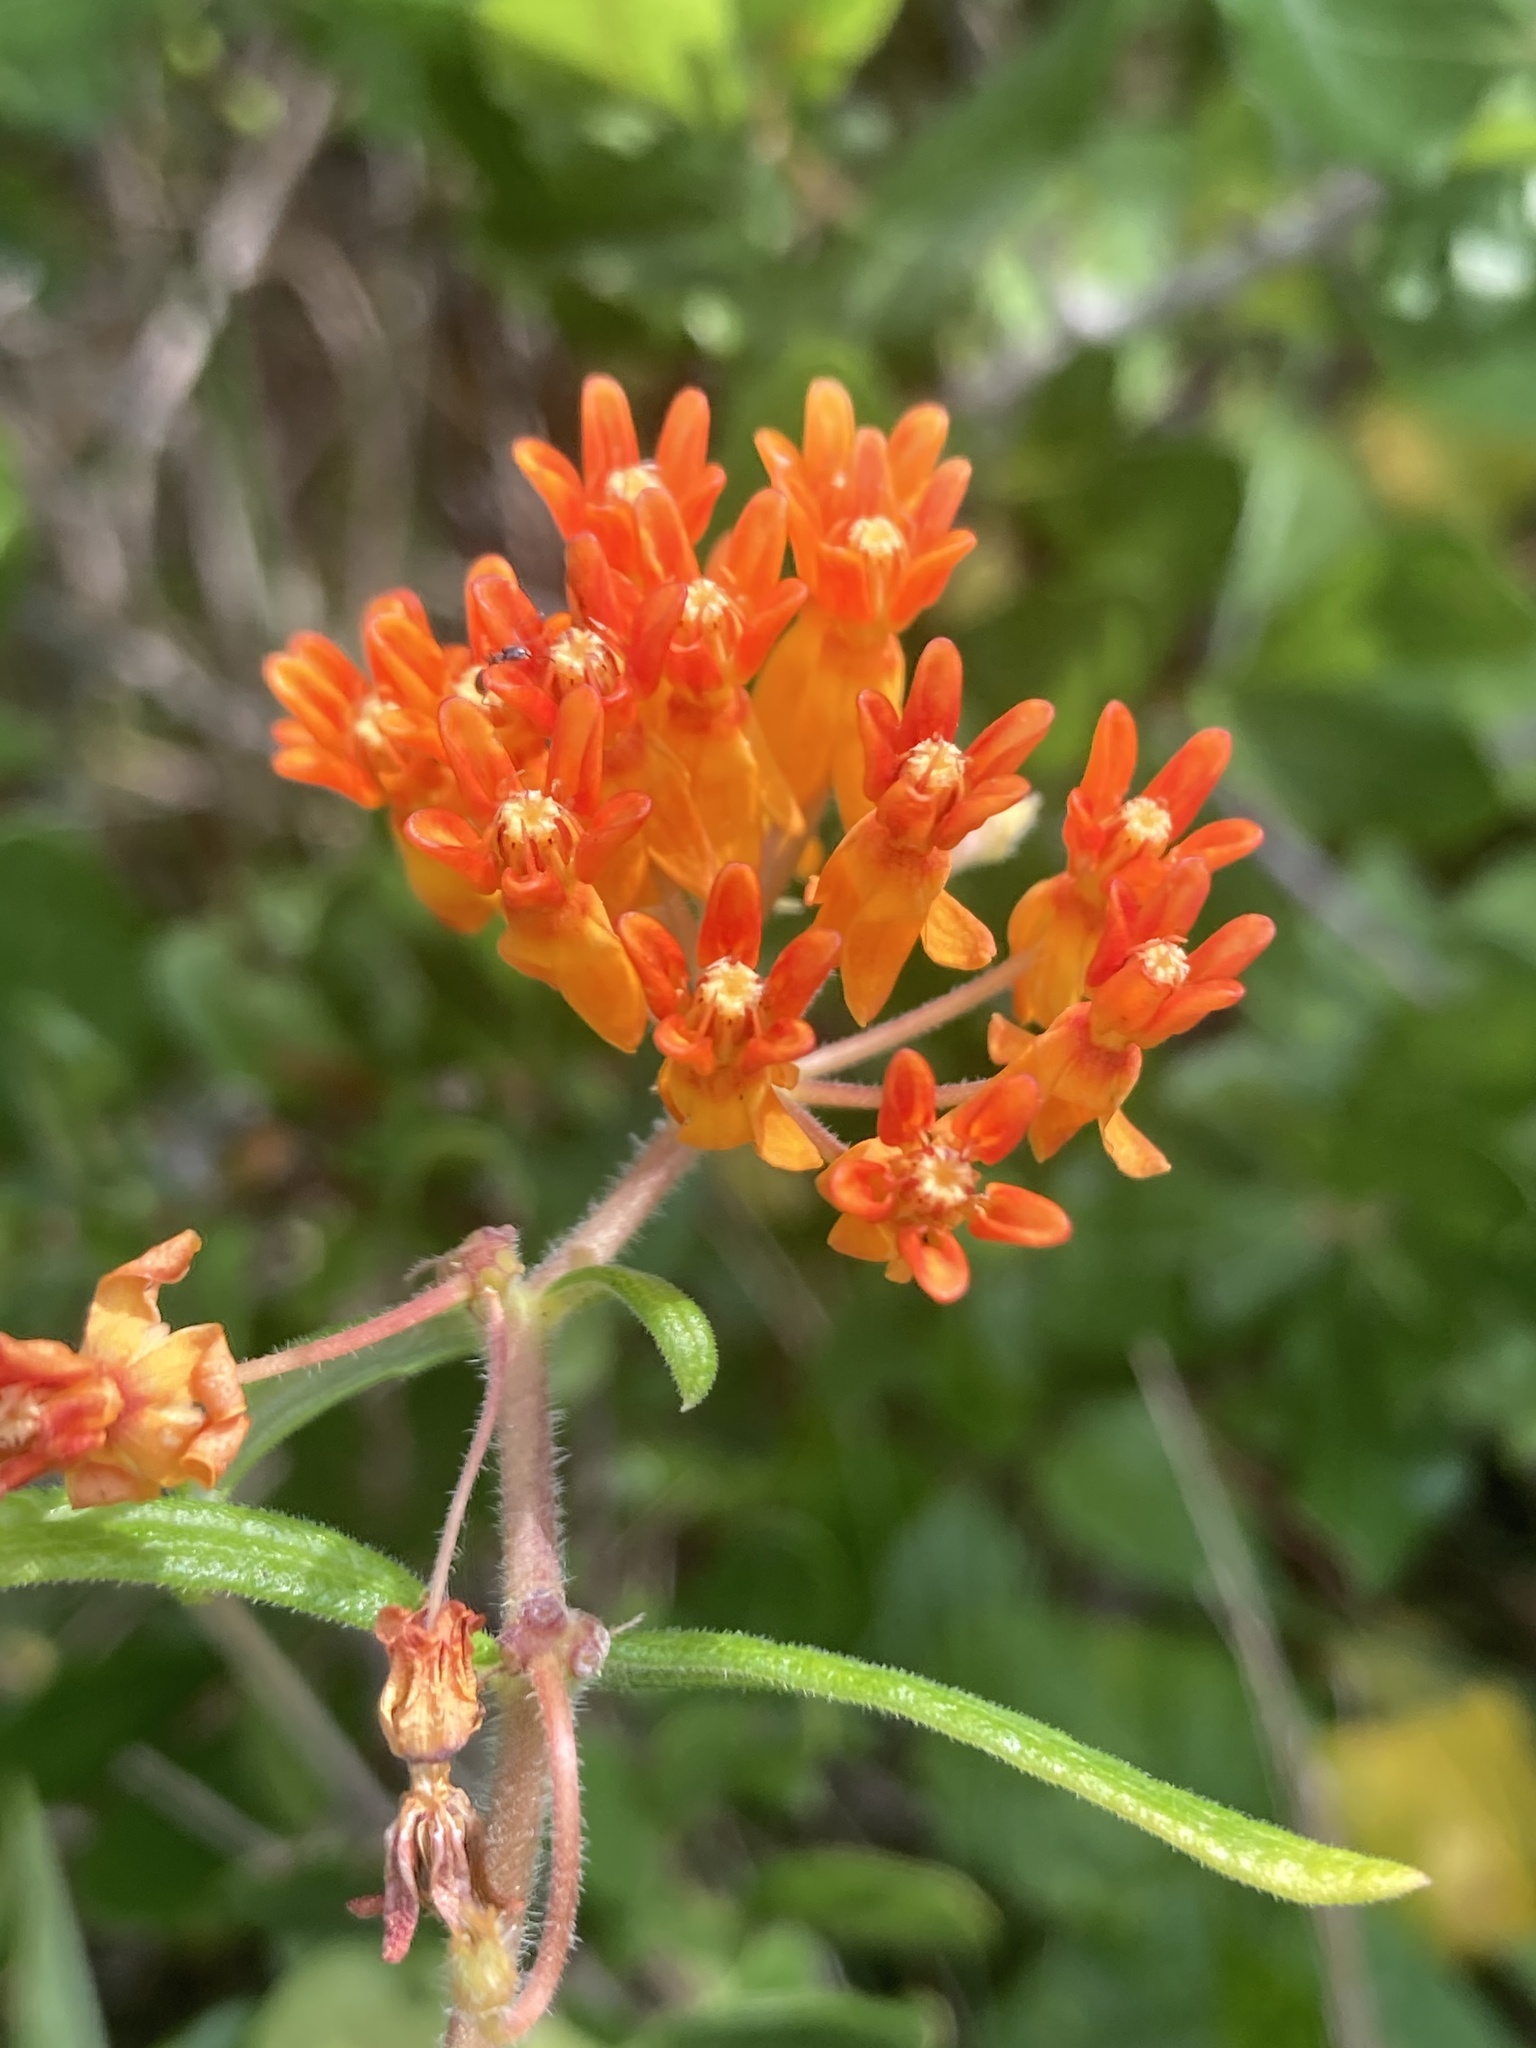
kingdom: Plantae
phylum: Tracheophyta
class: Magnoliopsida
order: Gentianales
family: Apocynaceae
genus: Asclepias
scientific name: Asclepias tuberosa
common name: Butterfly milkweed
